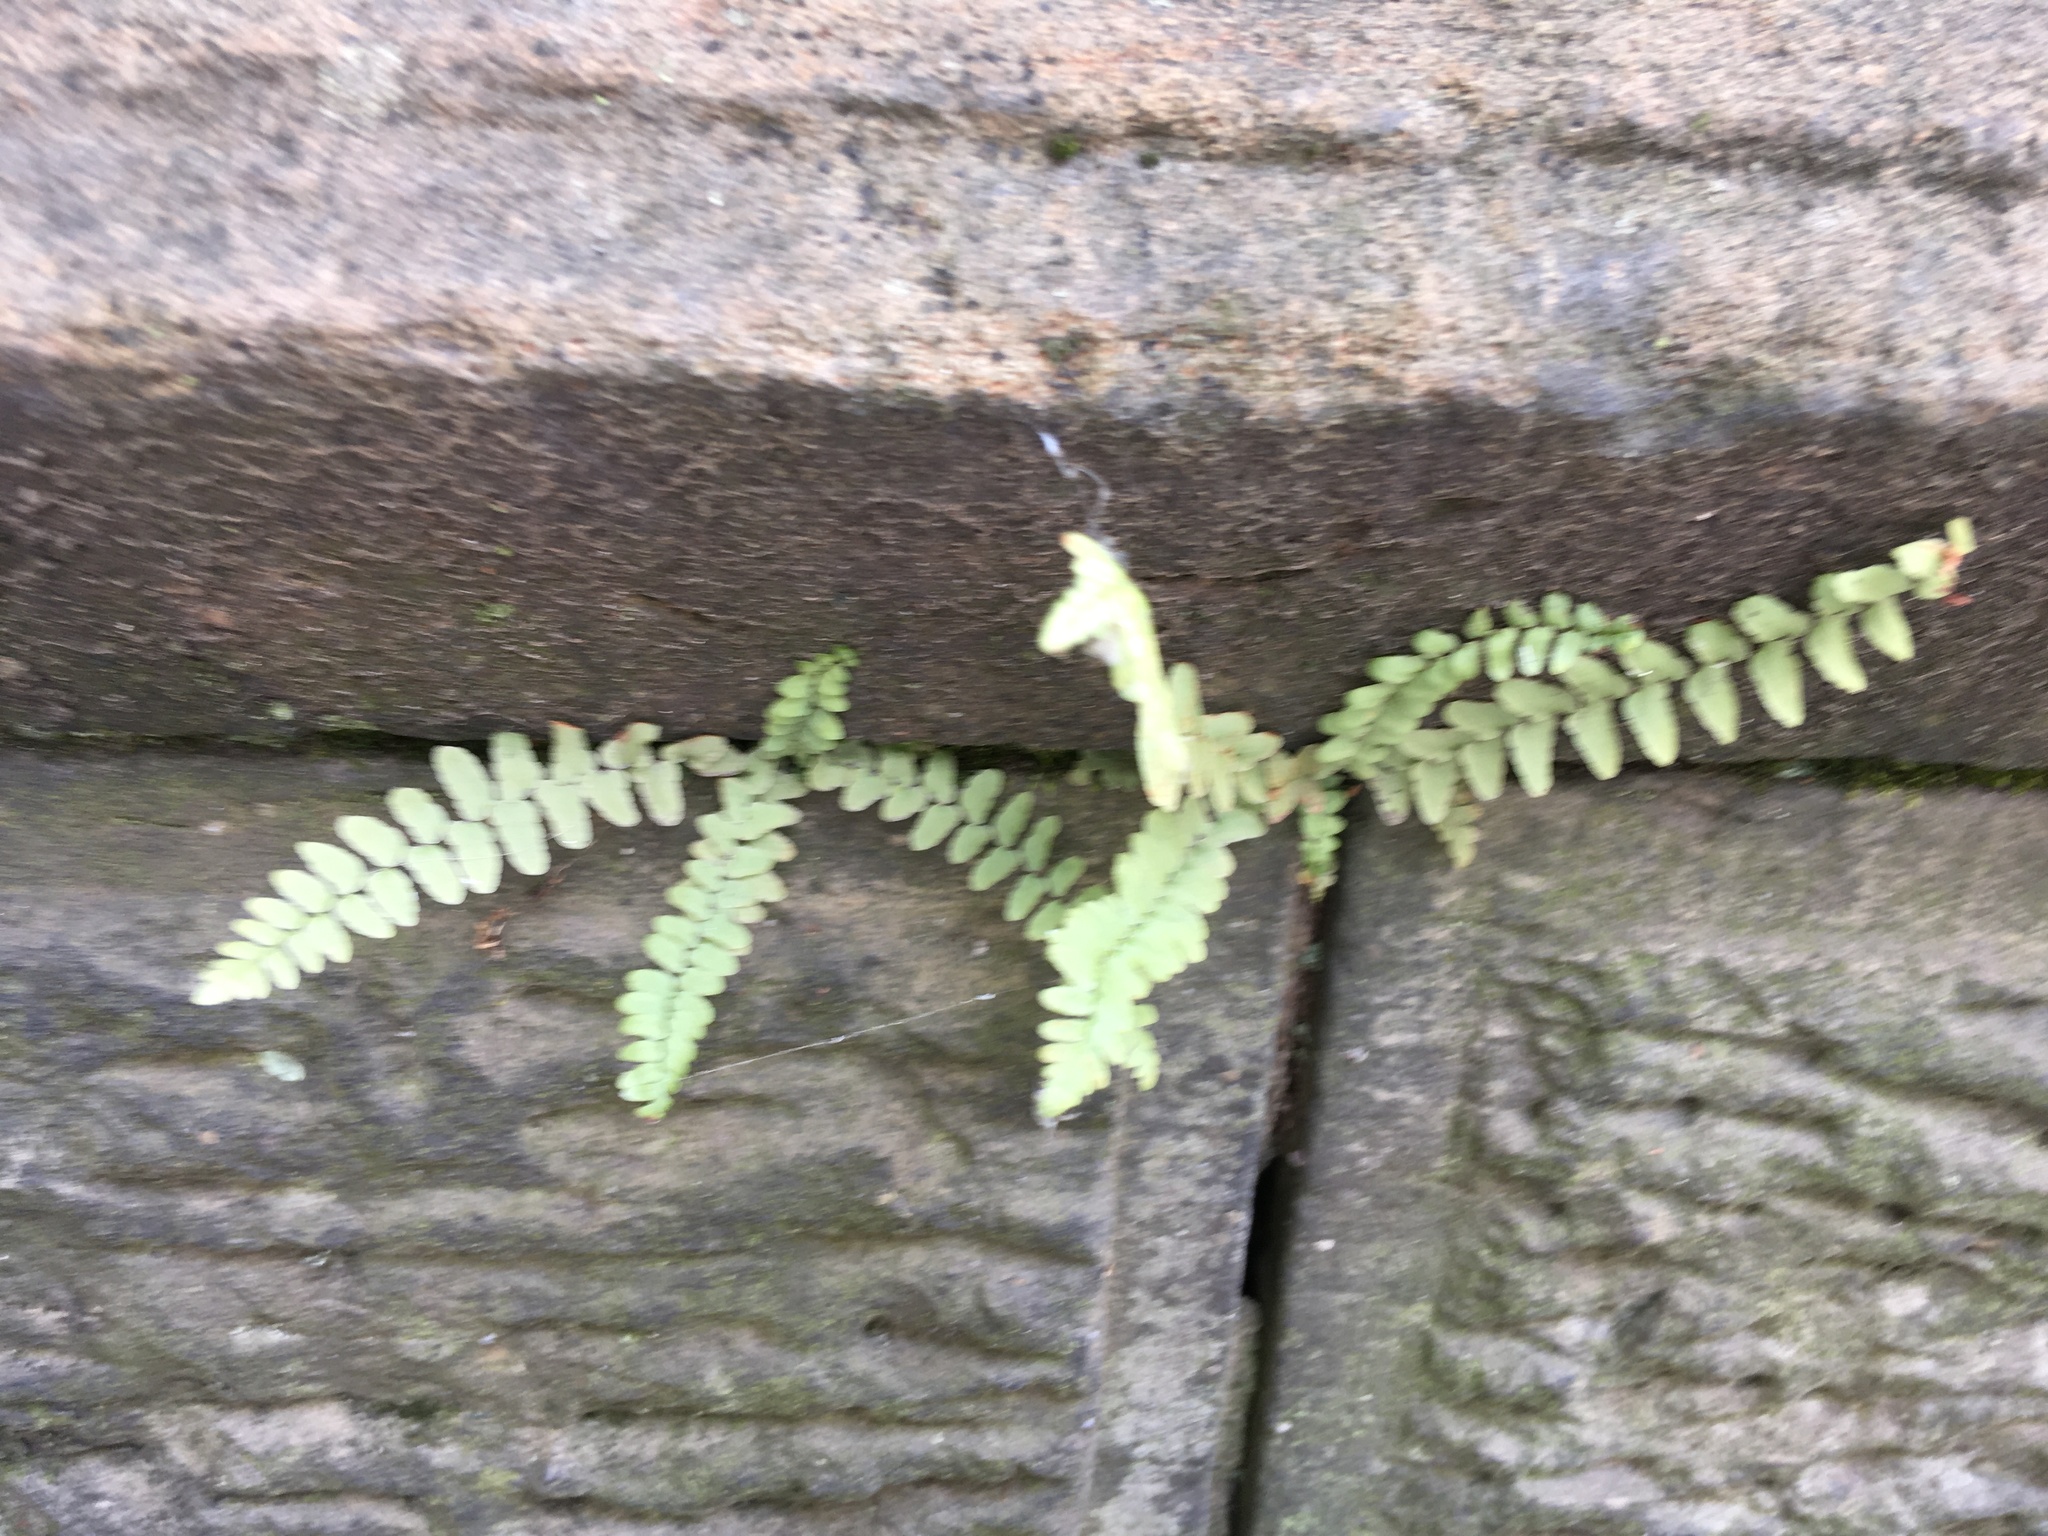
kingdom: Plantae
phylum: Tracheophyta
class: Polypodiopsida
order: Polypodiales
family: Aspleniaceae
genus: Asplenium
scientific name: Asplenium platyneuron
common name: Ebony spleenwort
